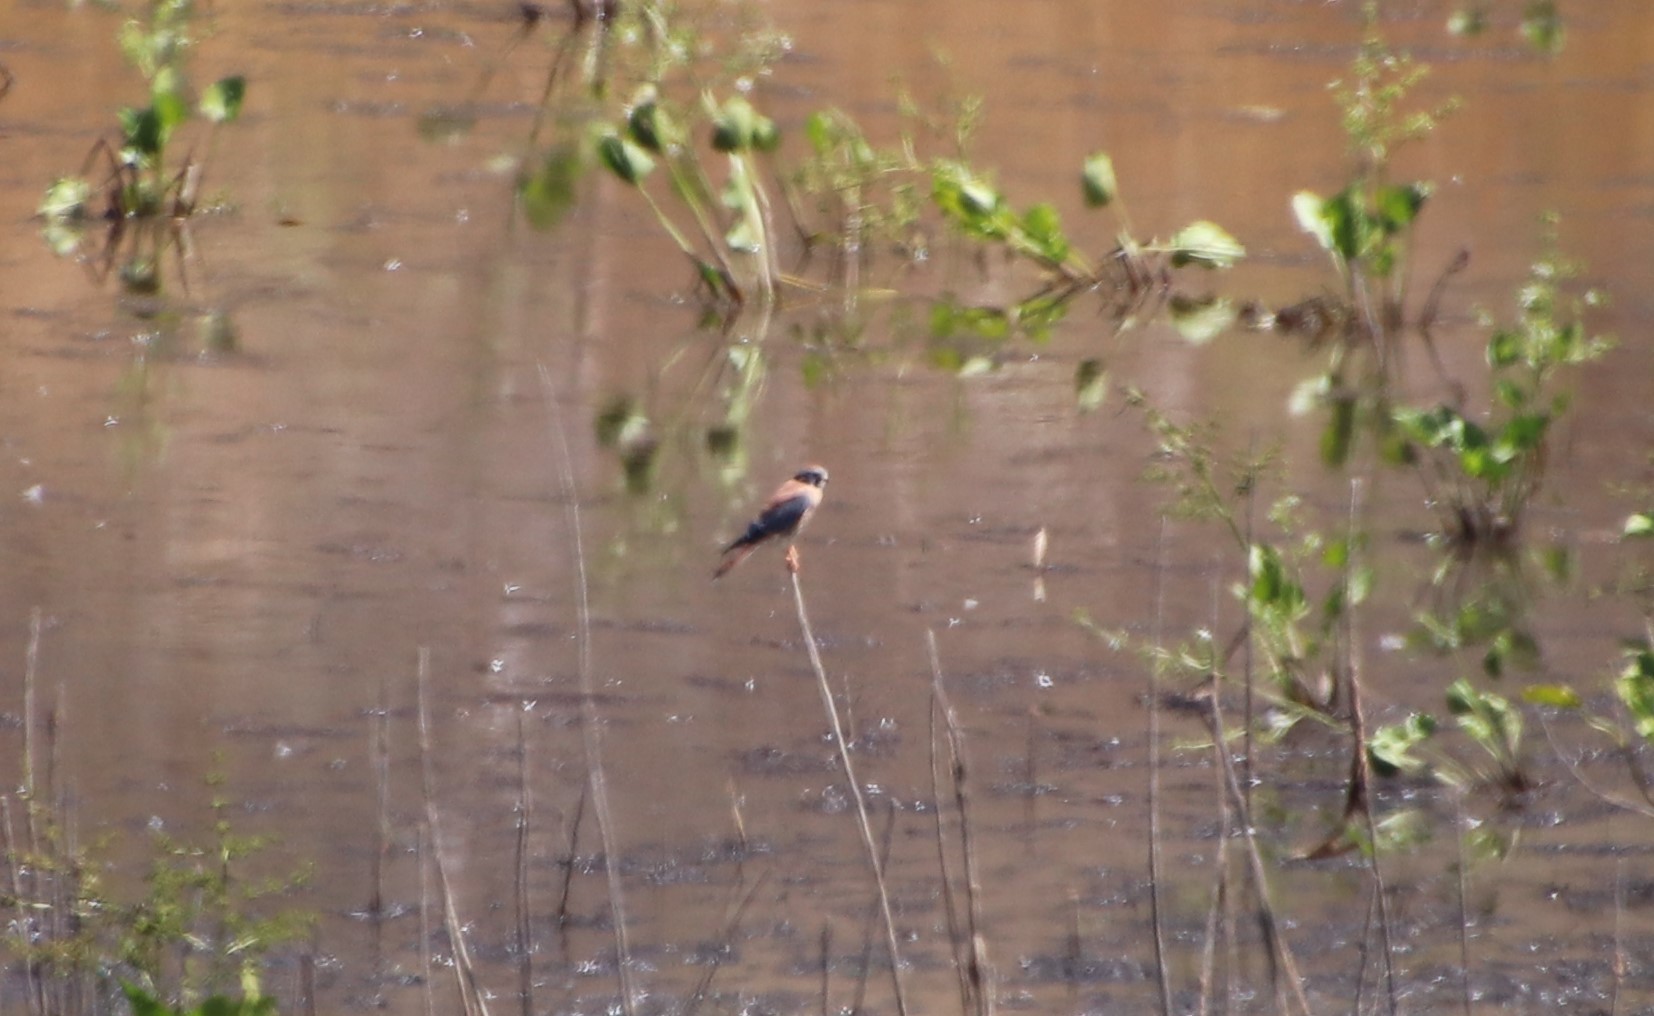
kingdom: Animalia
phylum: Chordata
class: Aves
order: Falconiformes
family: Falconidae
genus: Falco
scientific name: Falco sparverius
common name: American kestrel
